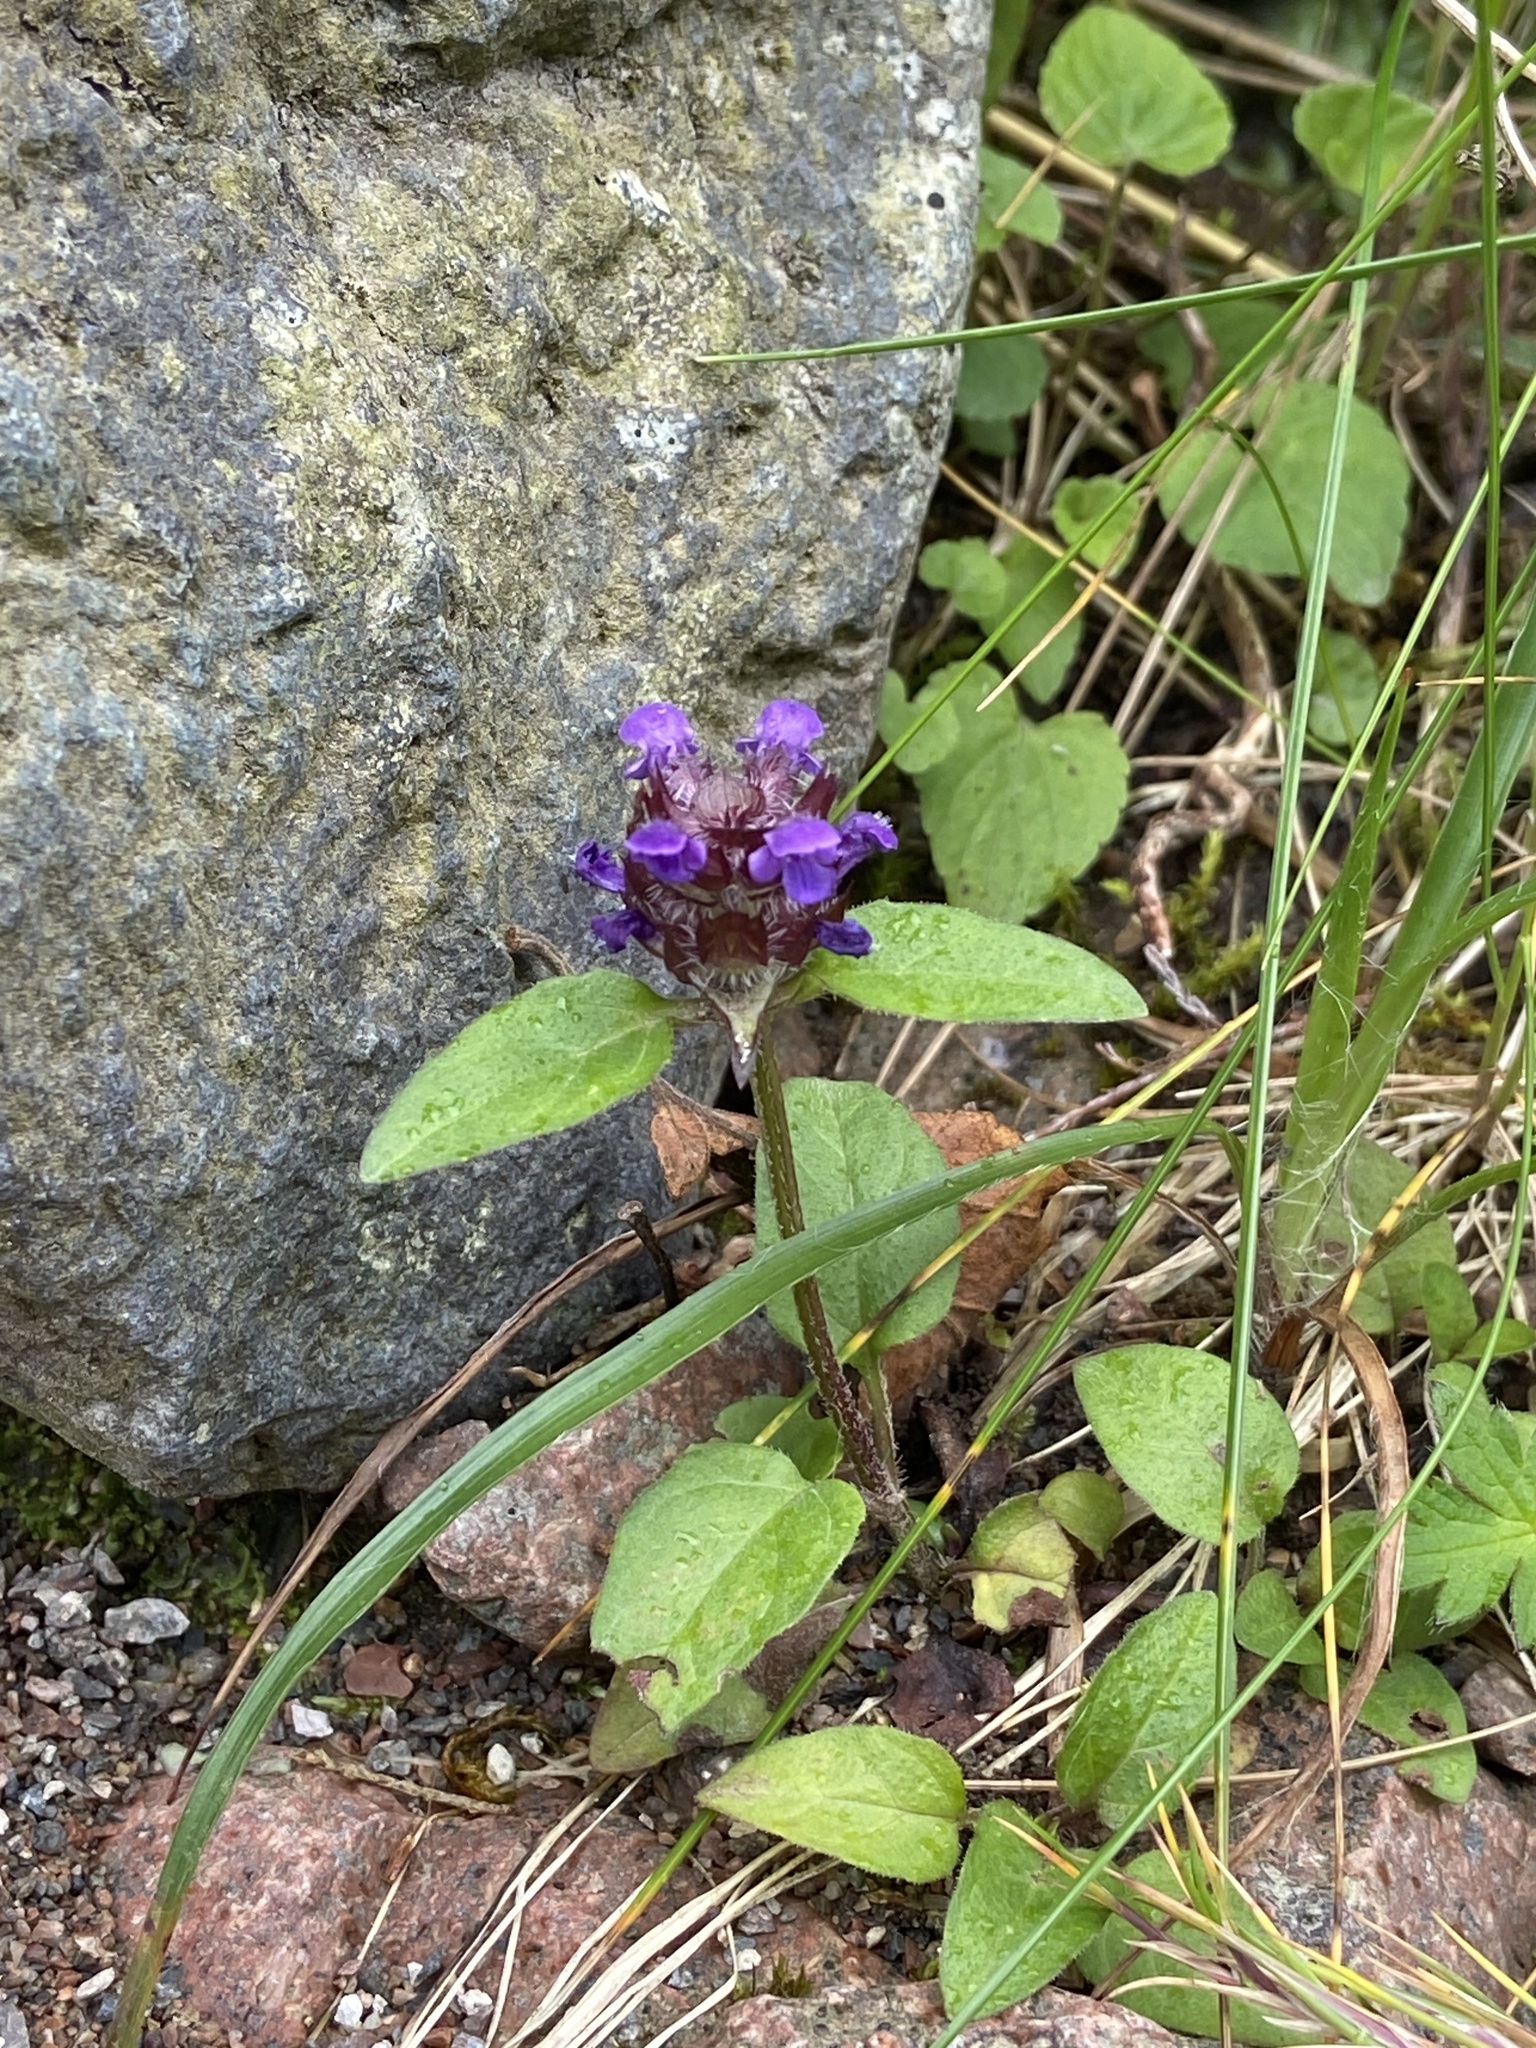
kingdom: Plantae
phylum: Tracheophyta
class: Magnoliopsida
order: Lamiales
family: Lamiaceae
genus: Prunella
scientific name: Prunella vulgaris
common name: Heal-all
